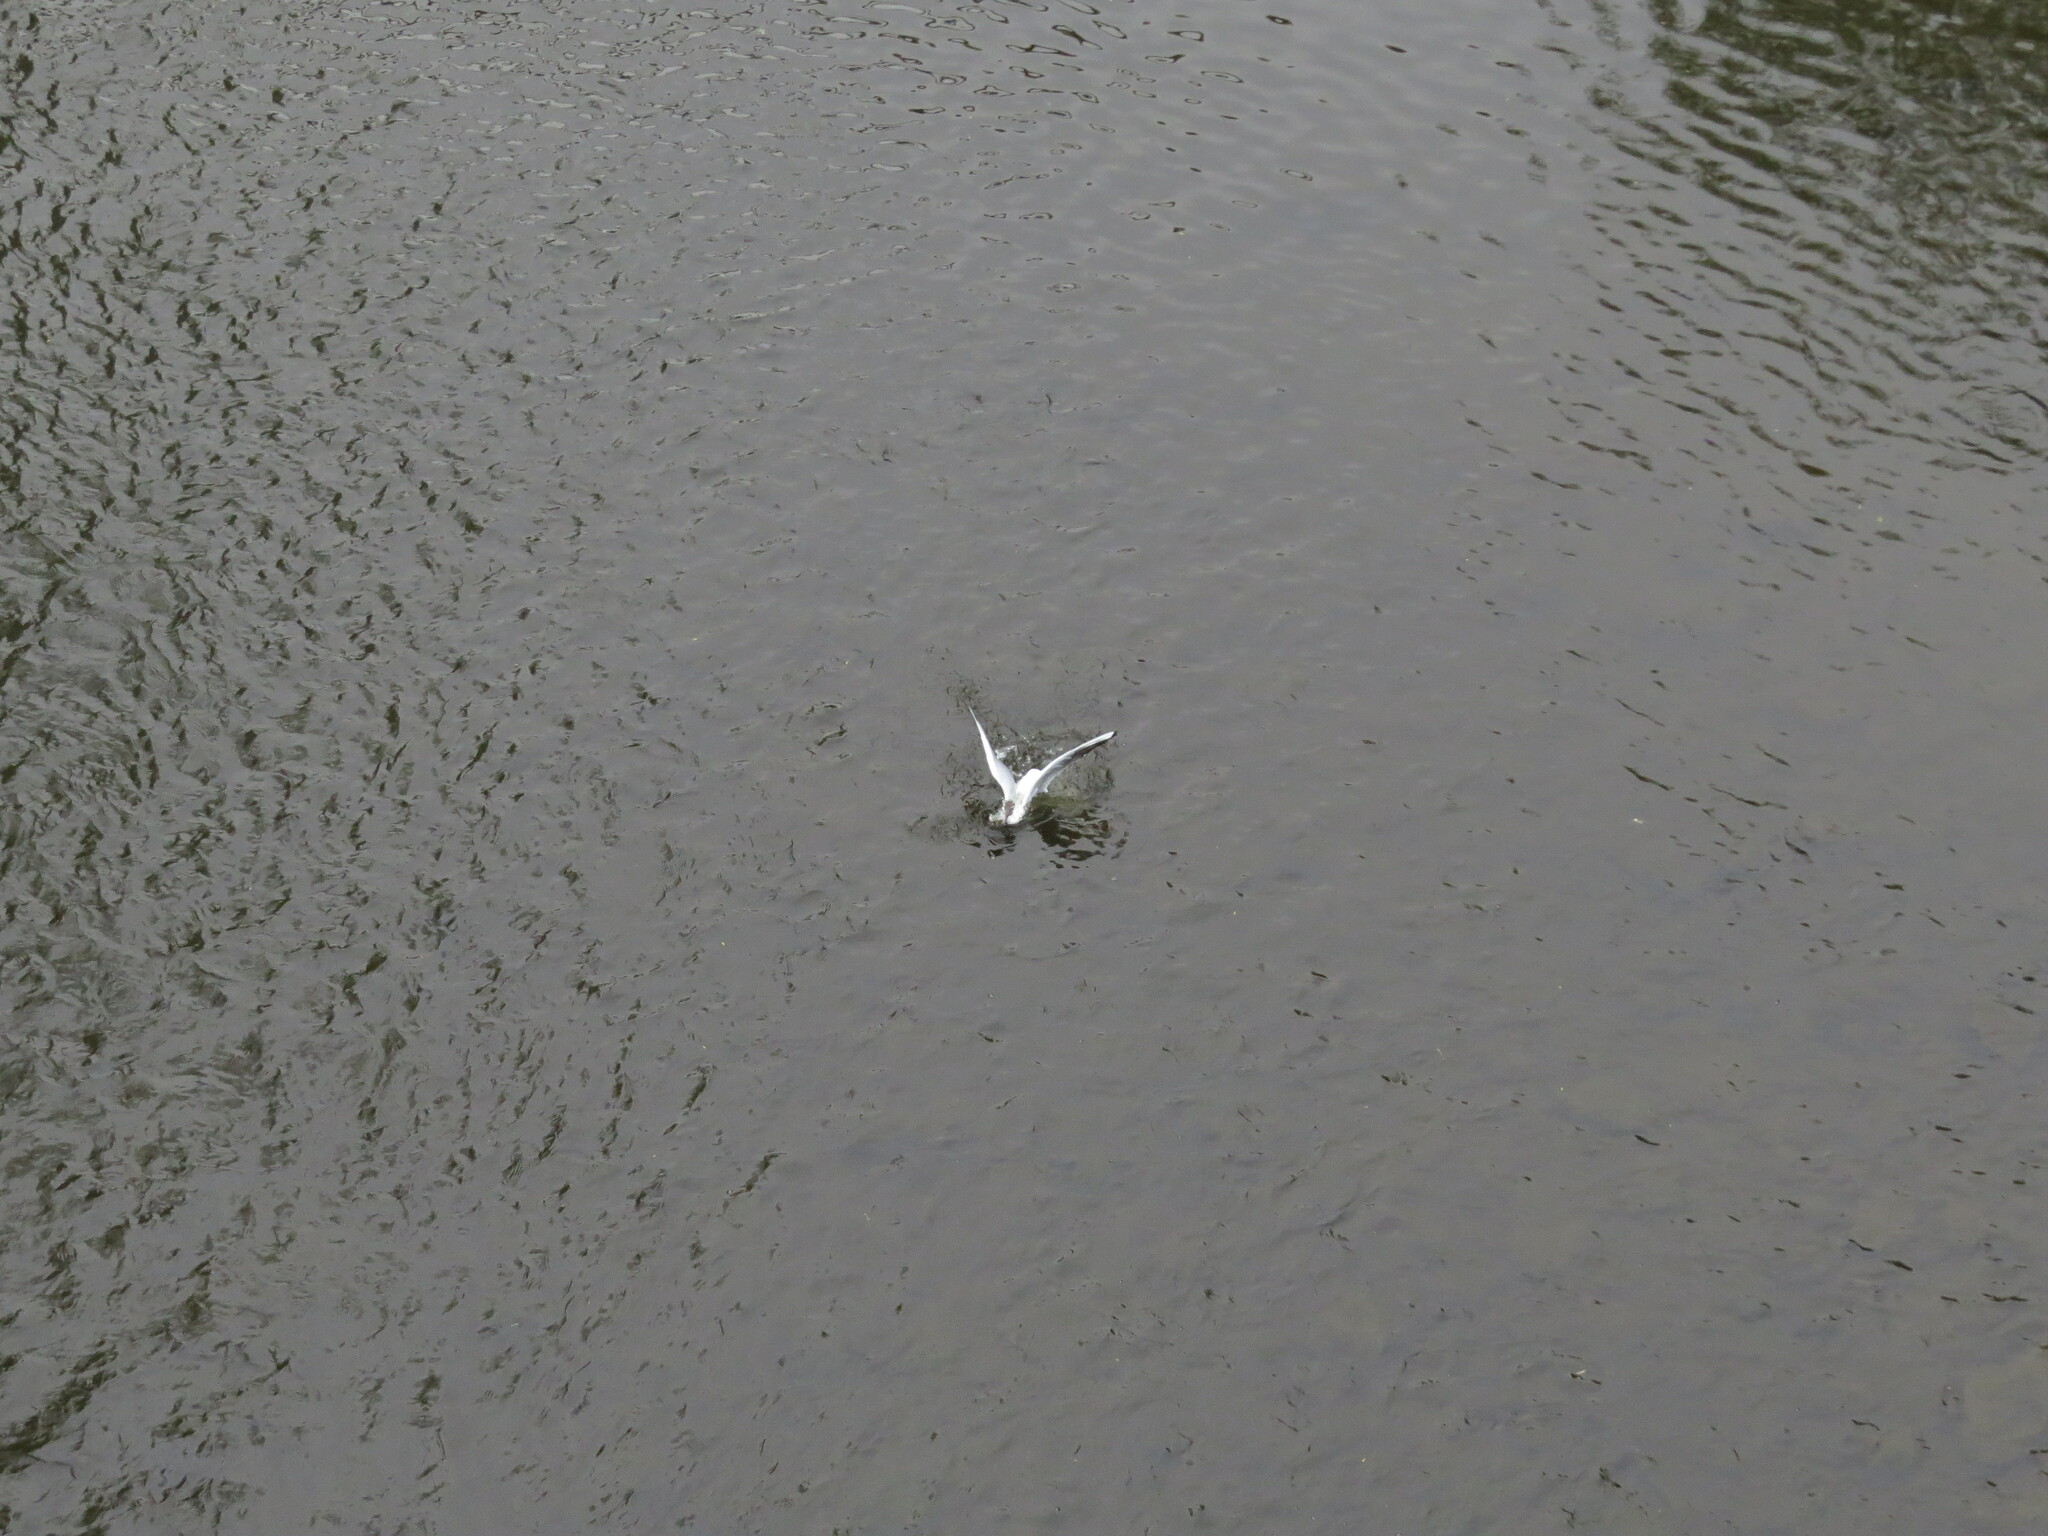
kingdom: Animalia
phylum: Chordata
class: Aves
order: Charadriiformes
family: Laridae
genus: Chroicocephalus
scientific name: Chroicocephalus ridibundus
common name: Black-headed gull
